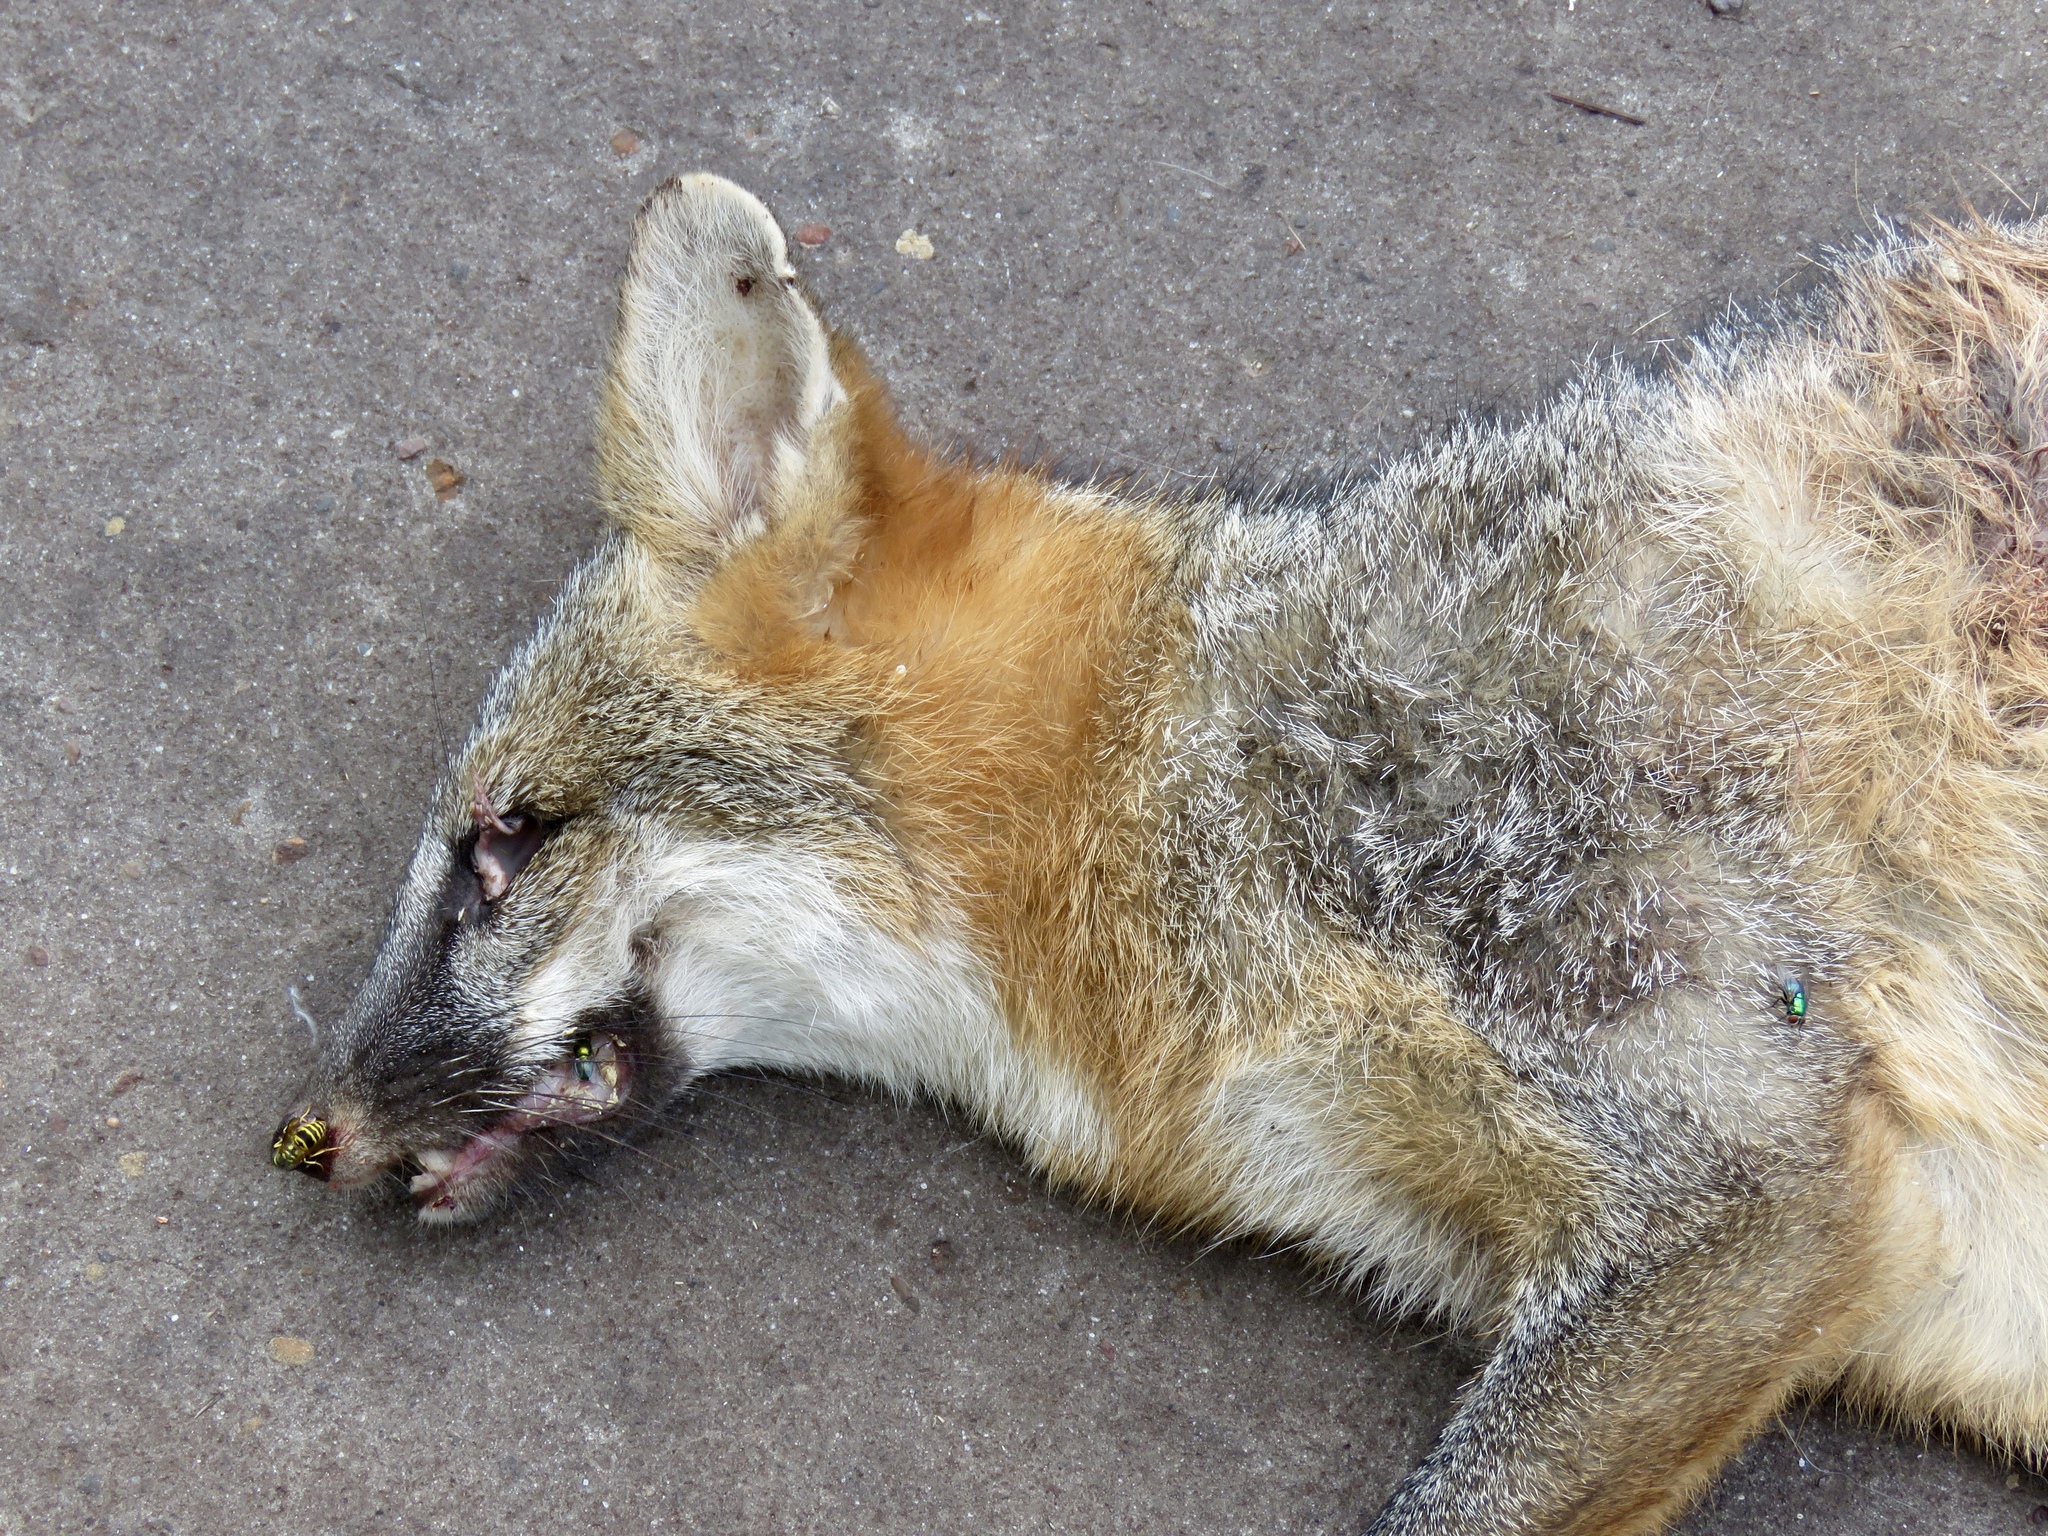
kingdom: Animalia
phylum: Chordata
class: Mammalia
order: Carnivora
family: Canidae
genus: Urocyon
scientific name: Urocyon cinereoargenteus
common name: Gray fox
